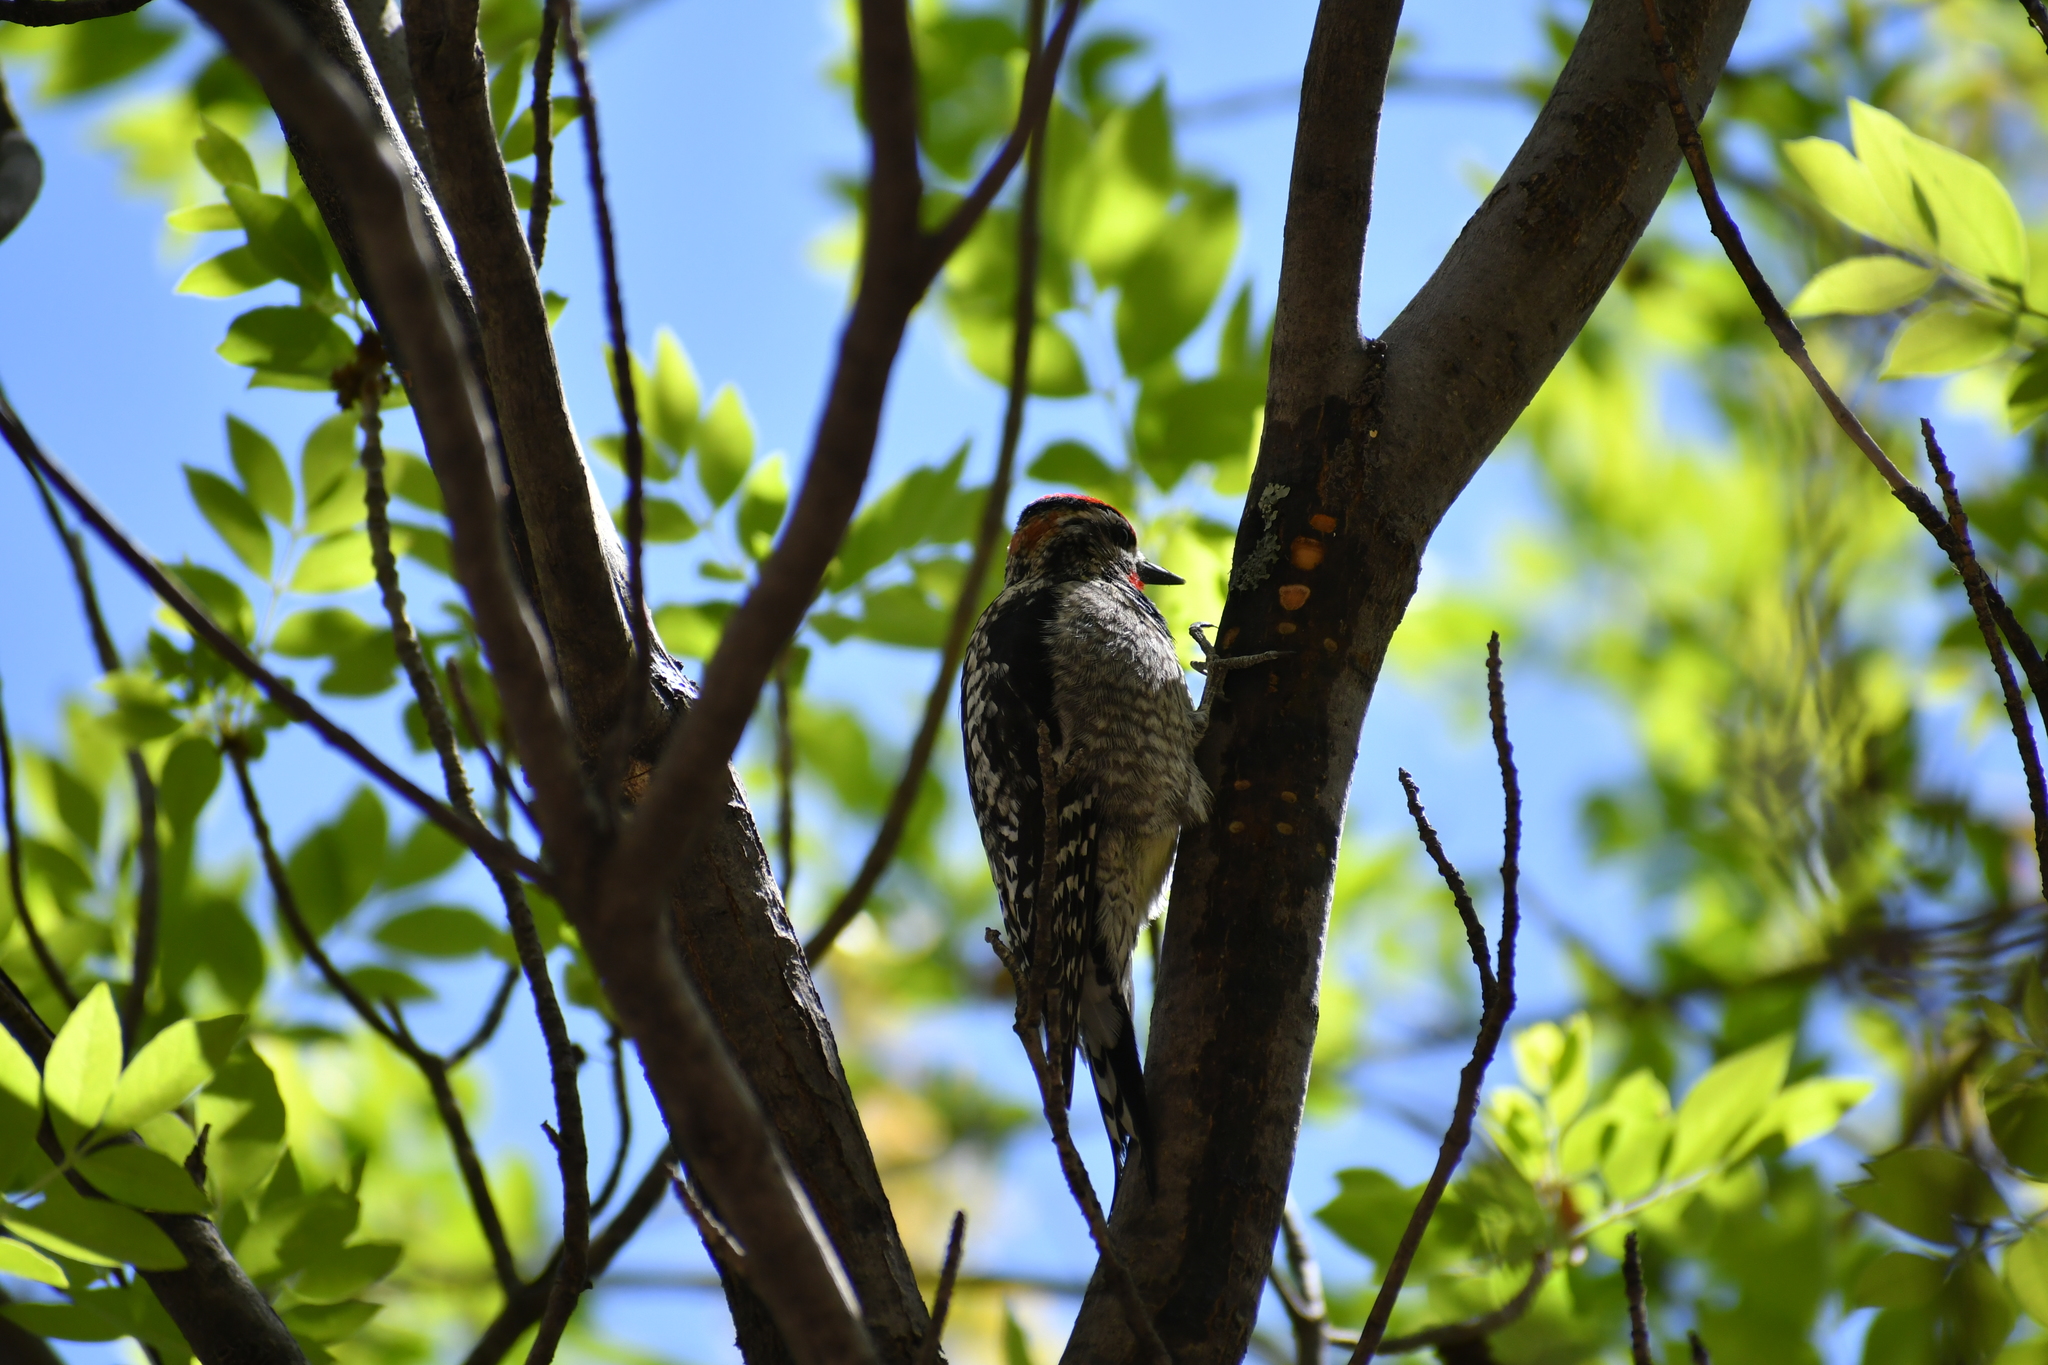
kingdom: Animalia
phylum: Chordata
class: Aves
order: Piciformes
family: Picidae
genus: Sphyrapicus
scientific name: Sphyrapicus nuchalis
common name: Red-naped sapsucker
